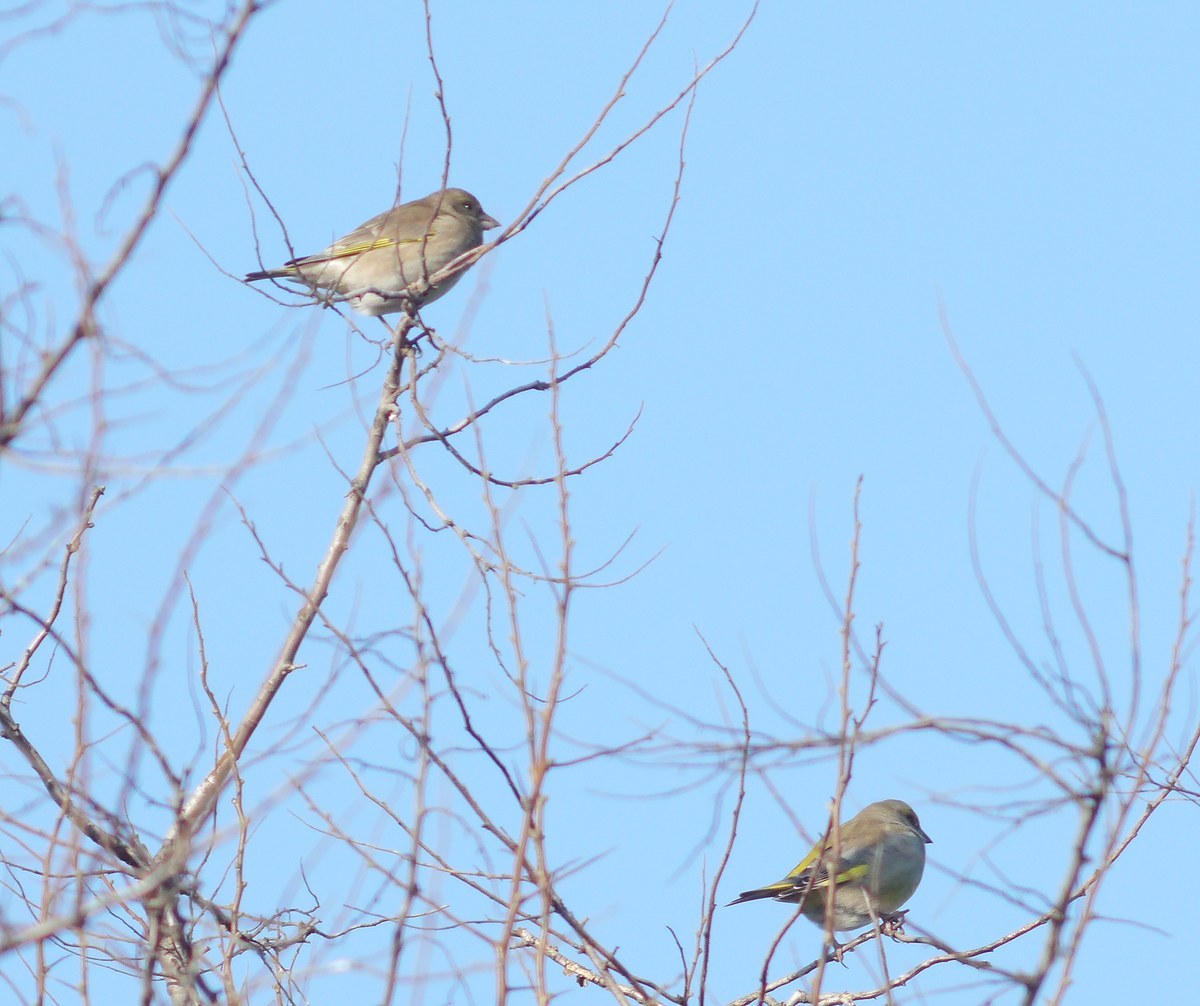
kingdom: Plantae
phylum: Tracheophyta
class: Liliopsida
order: Poales
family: Poaceae
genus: Chloris
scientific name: Chloris chloris
